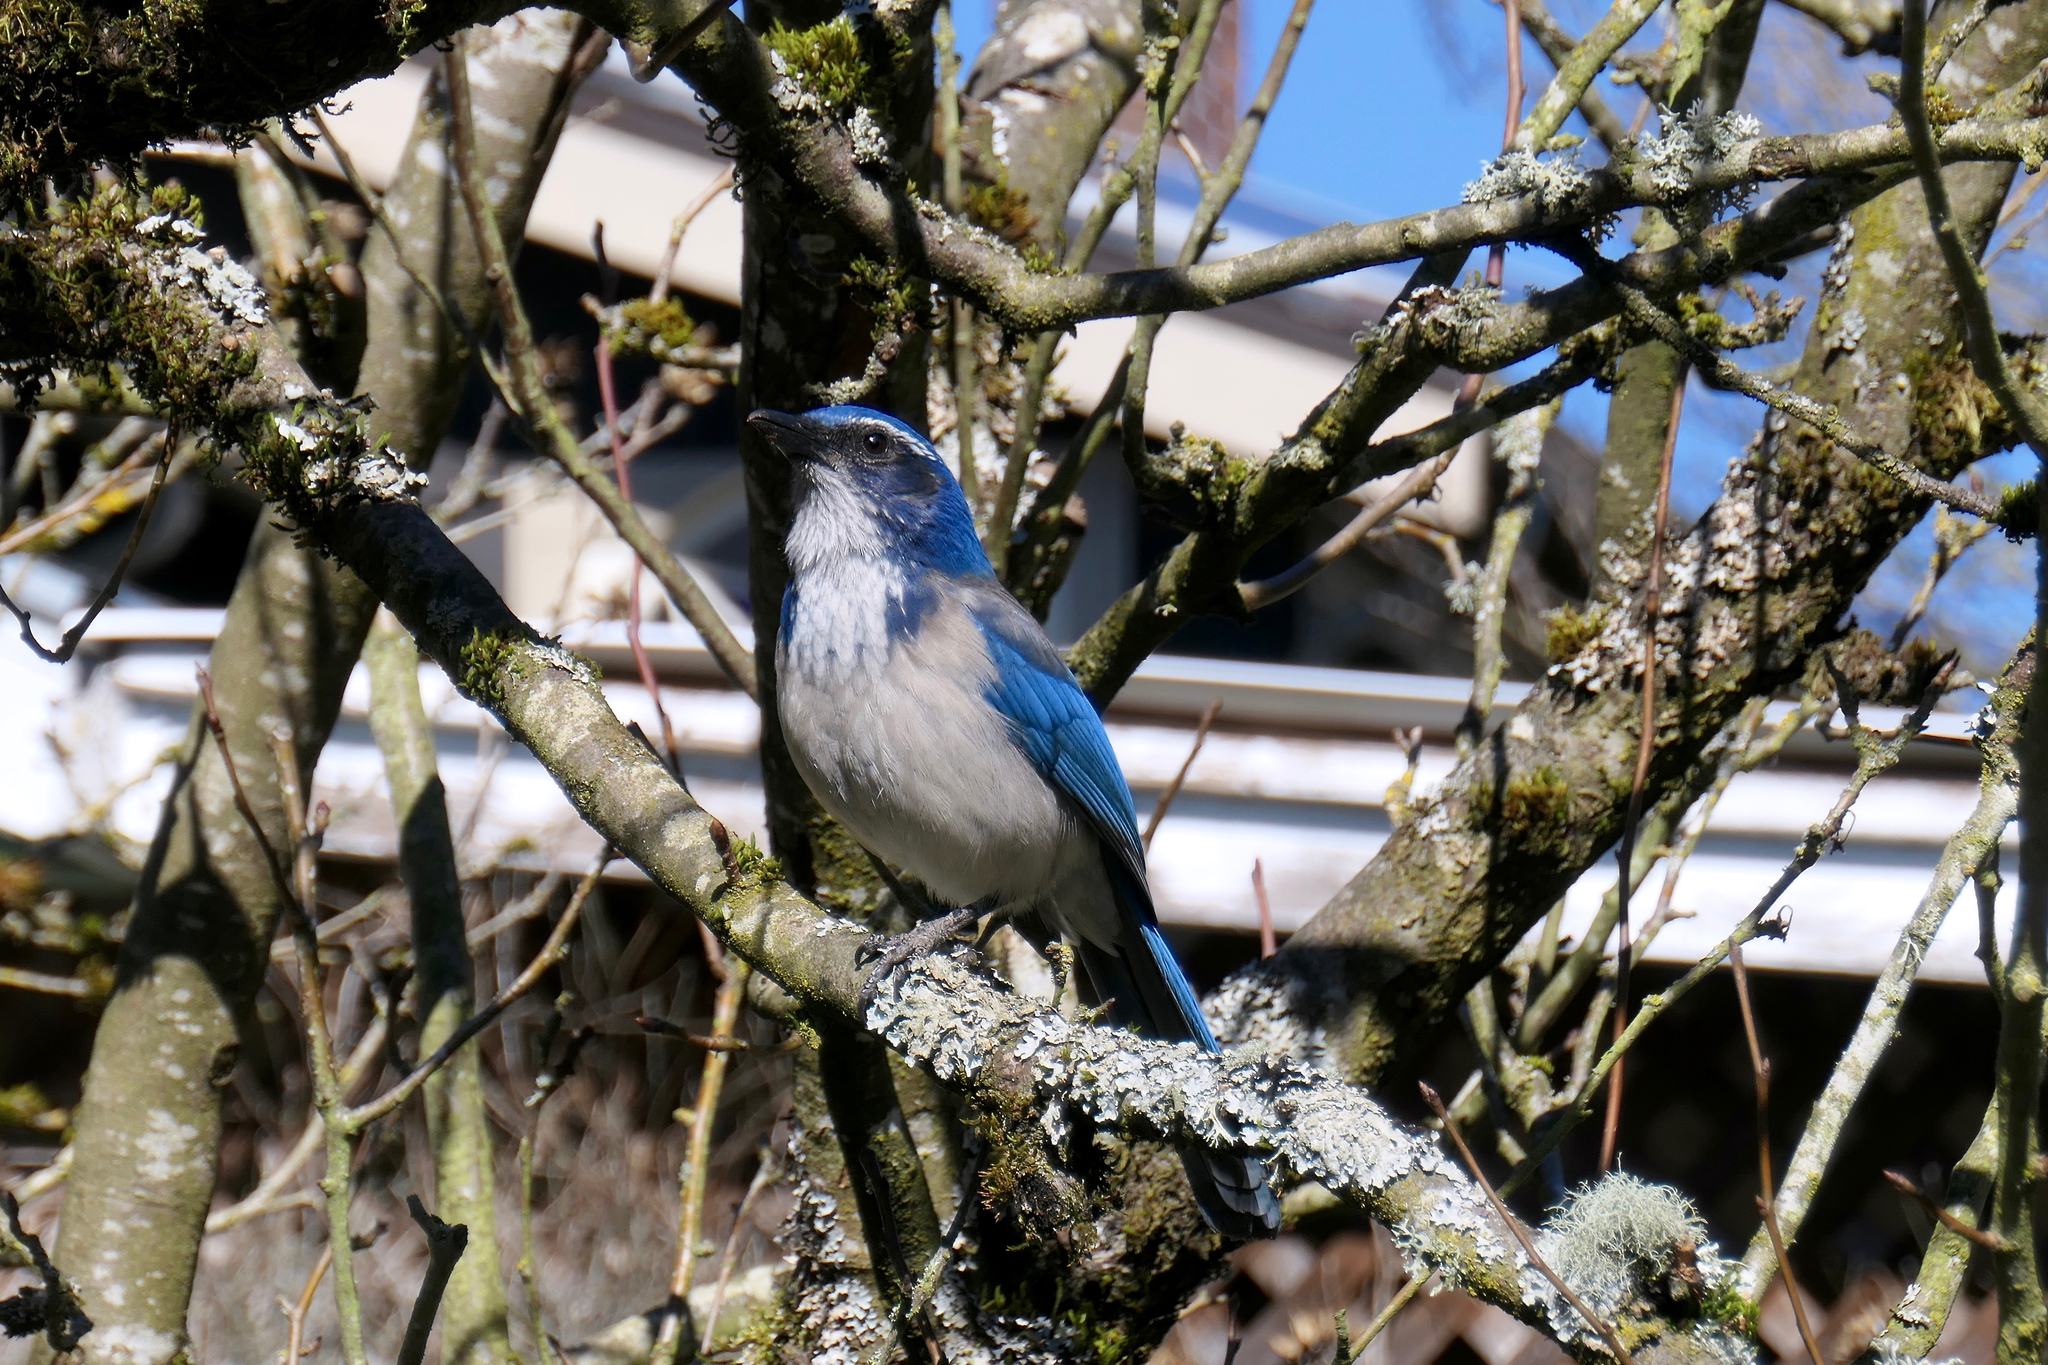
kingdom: Animalia
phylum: Chordata
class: Aves
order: Passeriformes
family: Corvidae
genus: Aphelocoma
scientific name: Aphelocoma californica
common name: California scrub-jay
